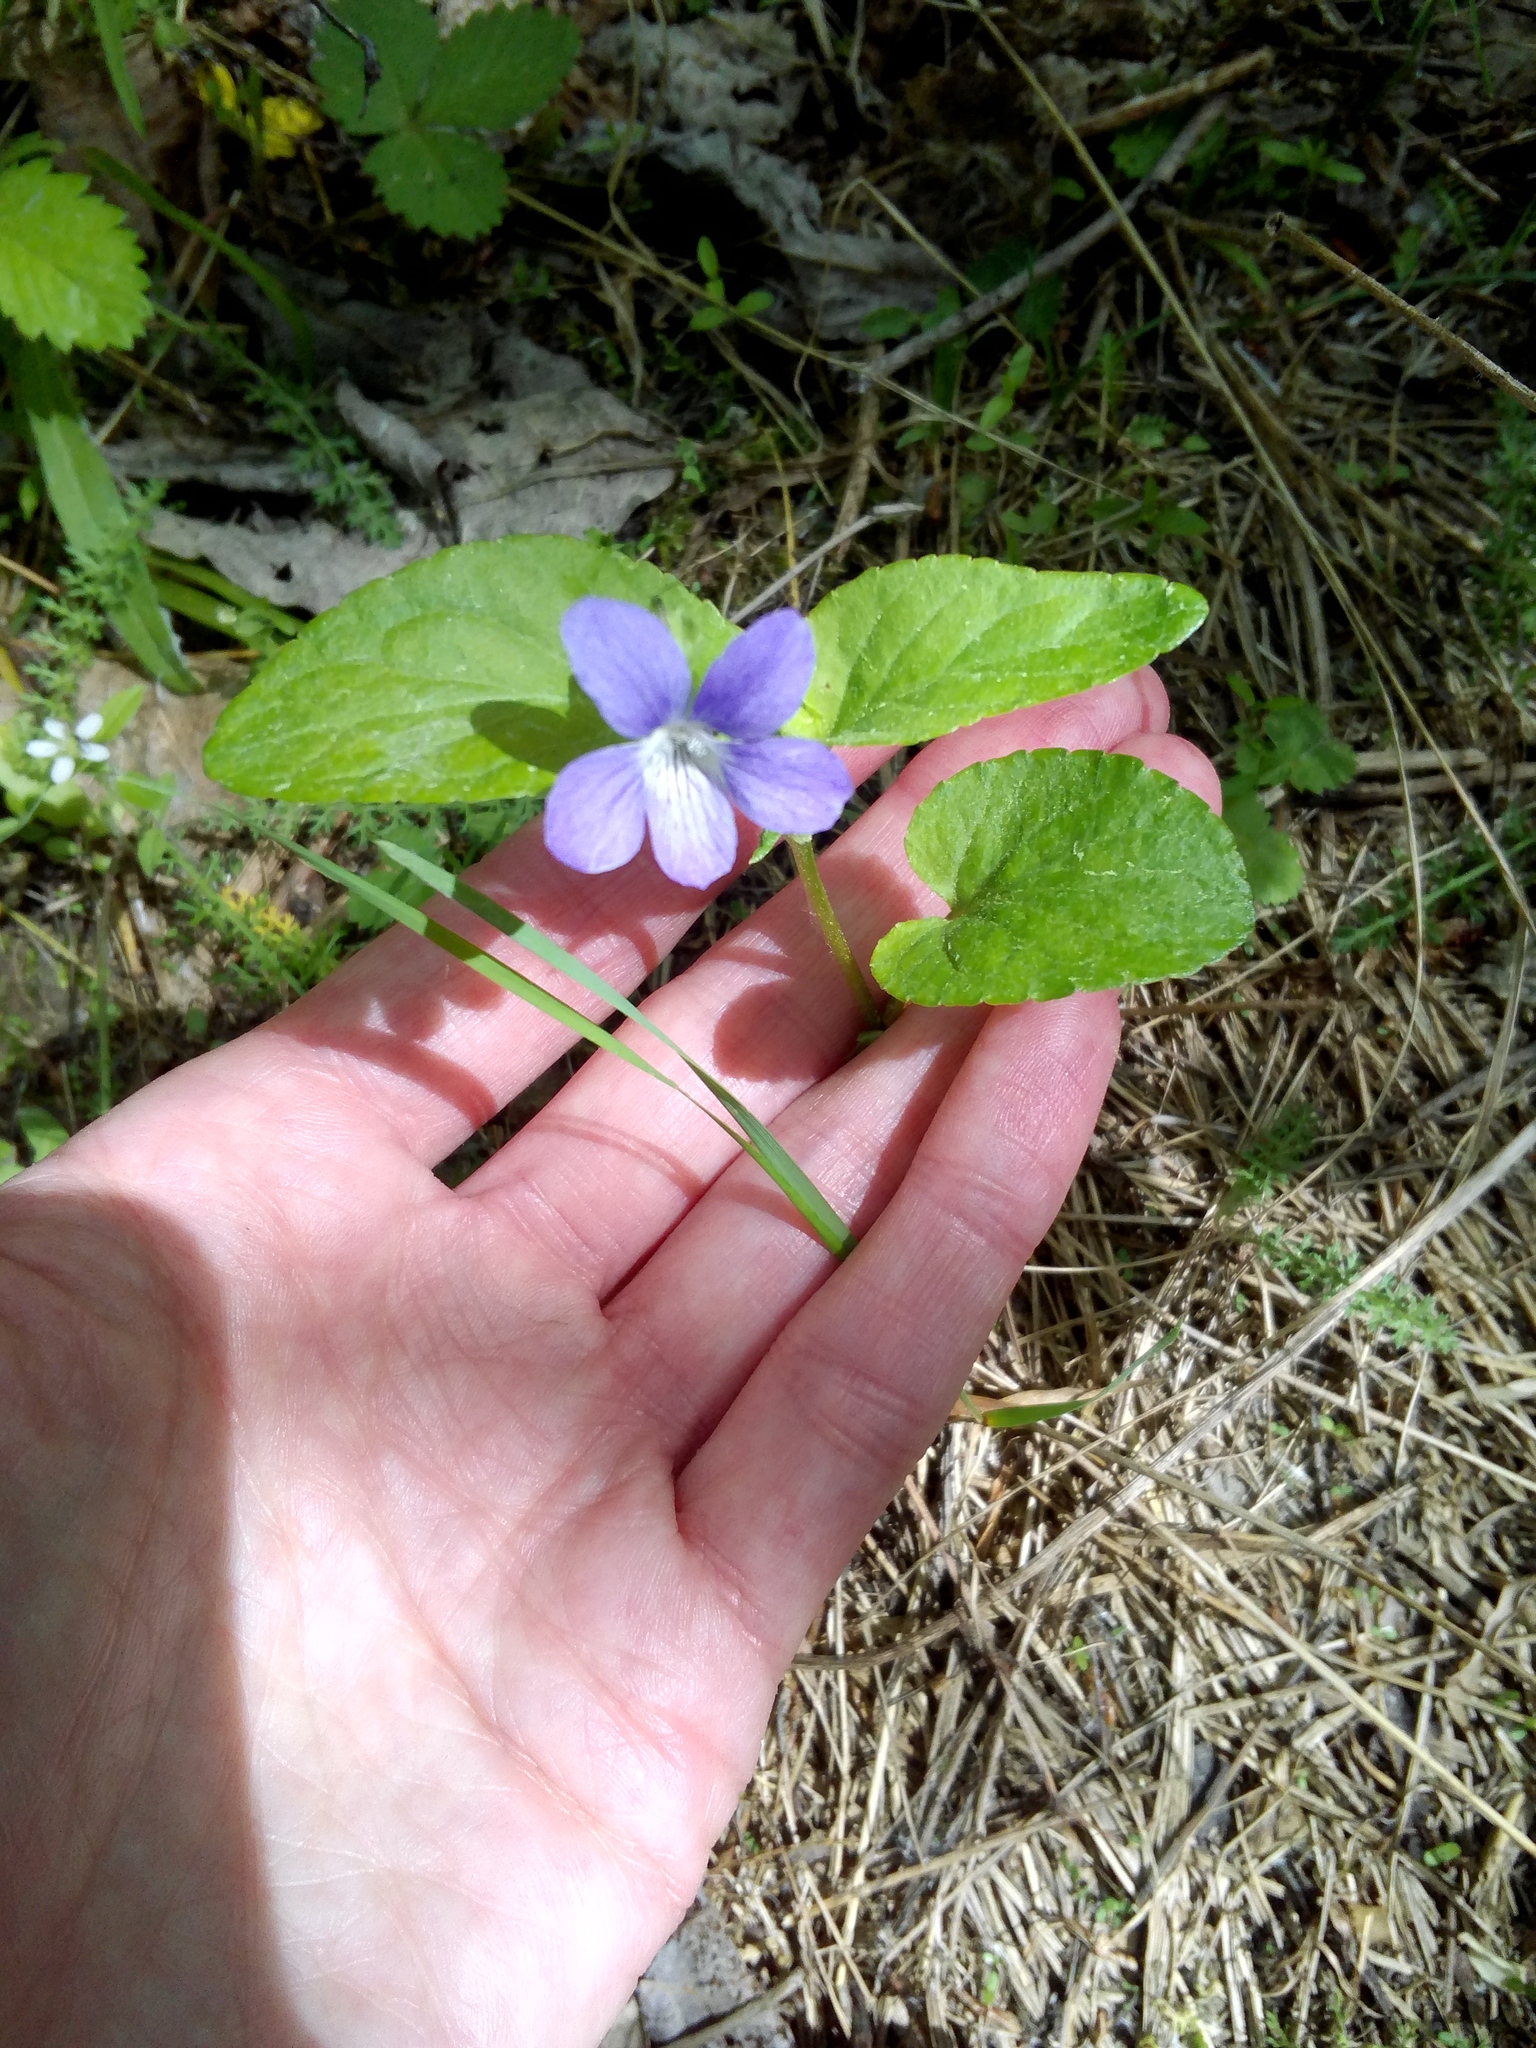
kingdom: Plantae
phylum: Tracheophyta
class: Magnoliopsida
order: Malpighiales
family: Violaceae
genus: Viola
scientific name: Viola
